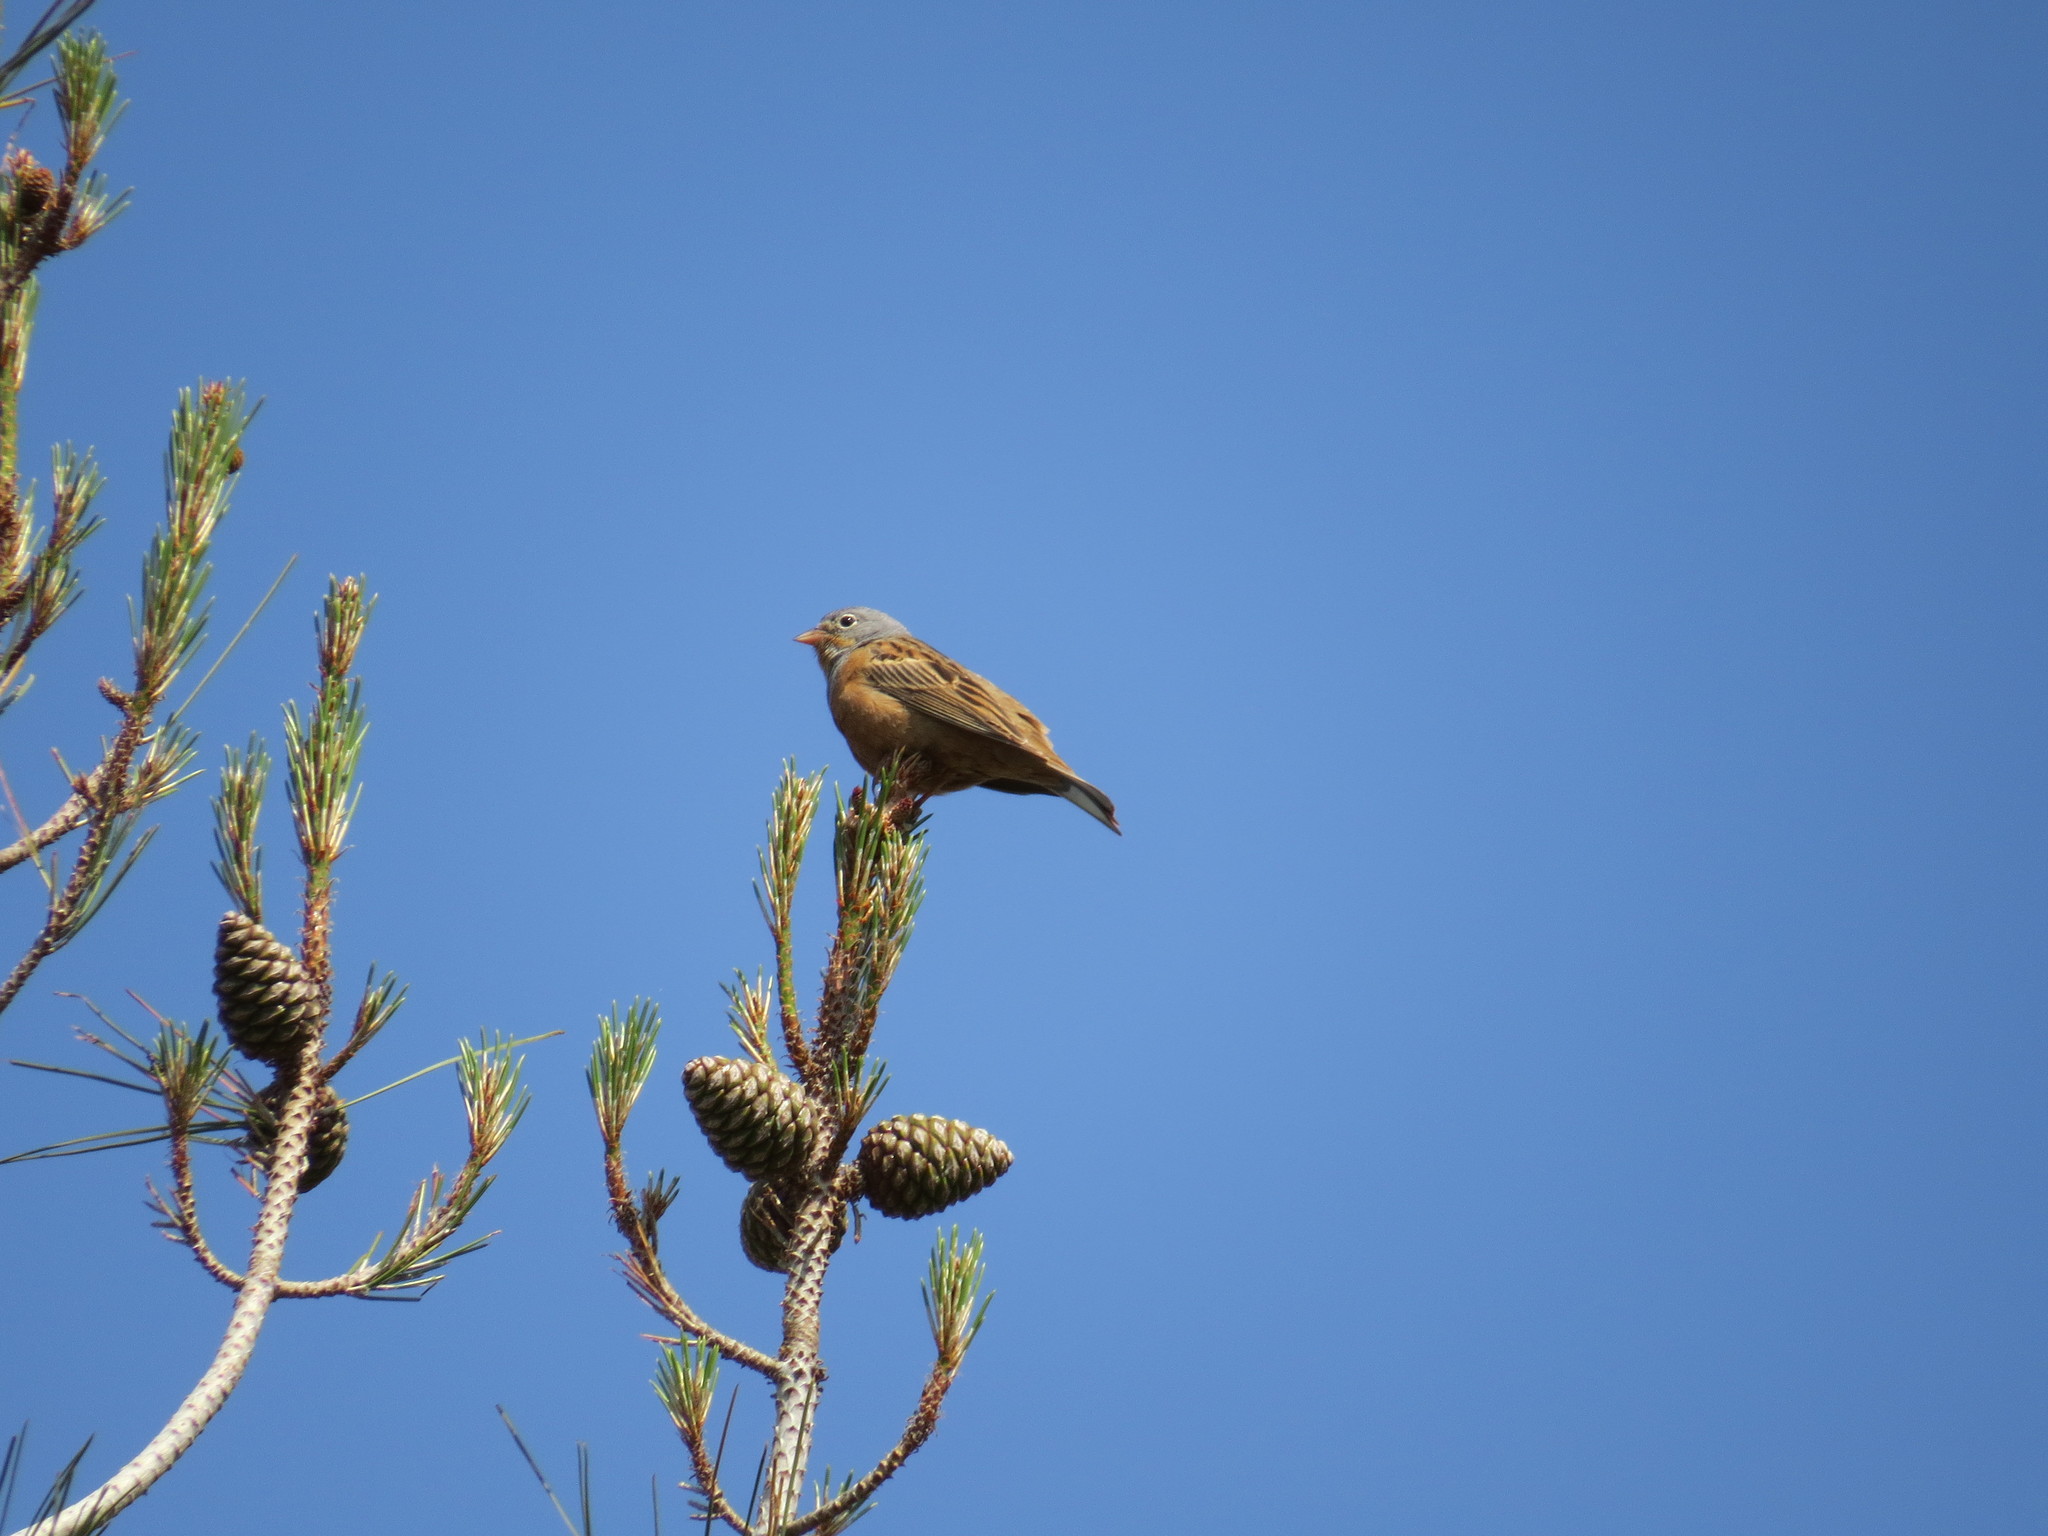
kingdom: Animalia
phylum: Chordata
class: Aves
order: Passeriformes
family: Emberizidae
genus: Emberiza
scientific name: Emberiza caesia
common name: Cretzschmar's bunting
